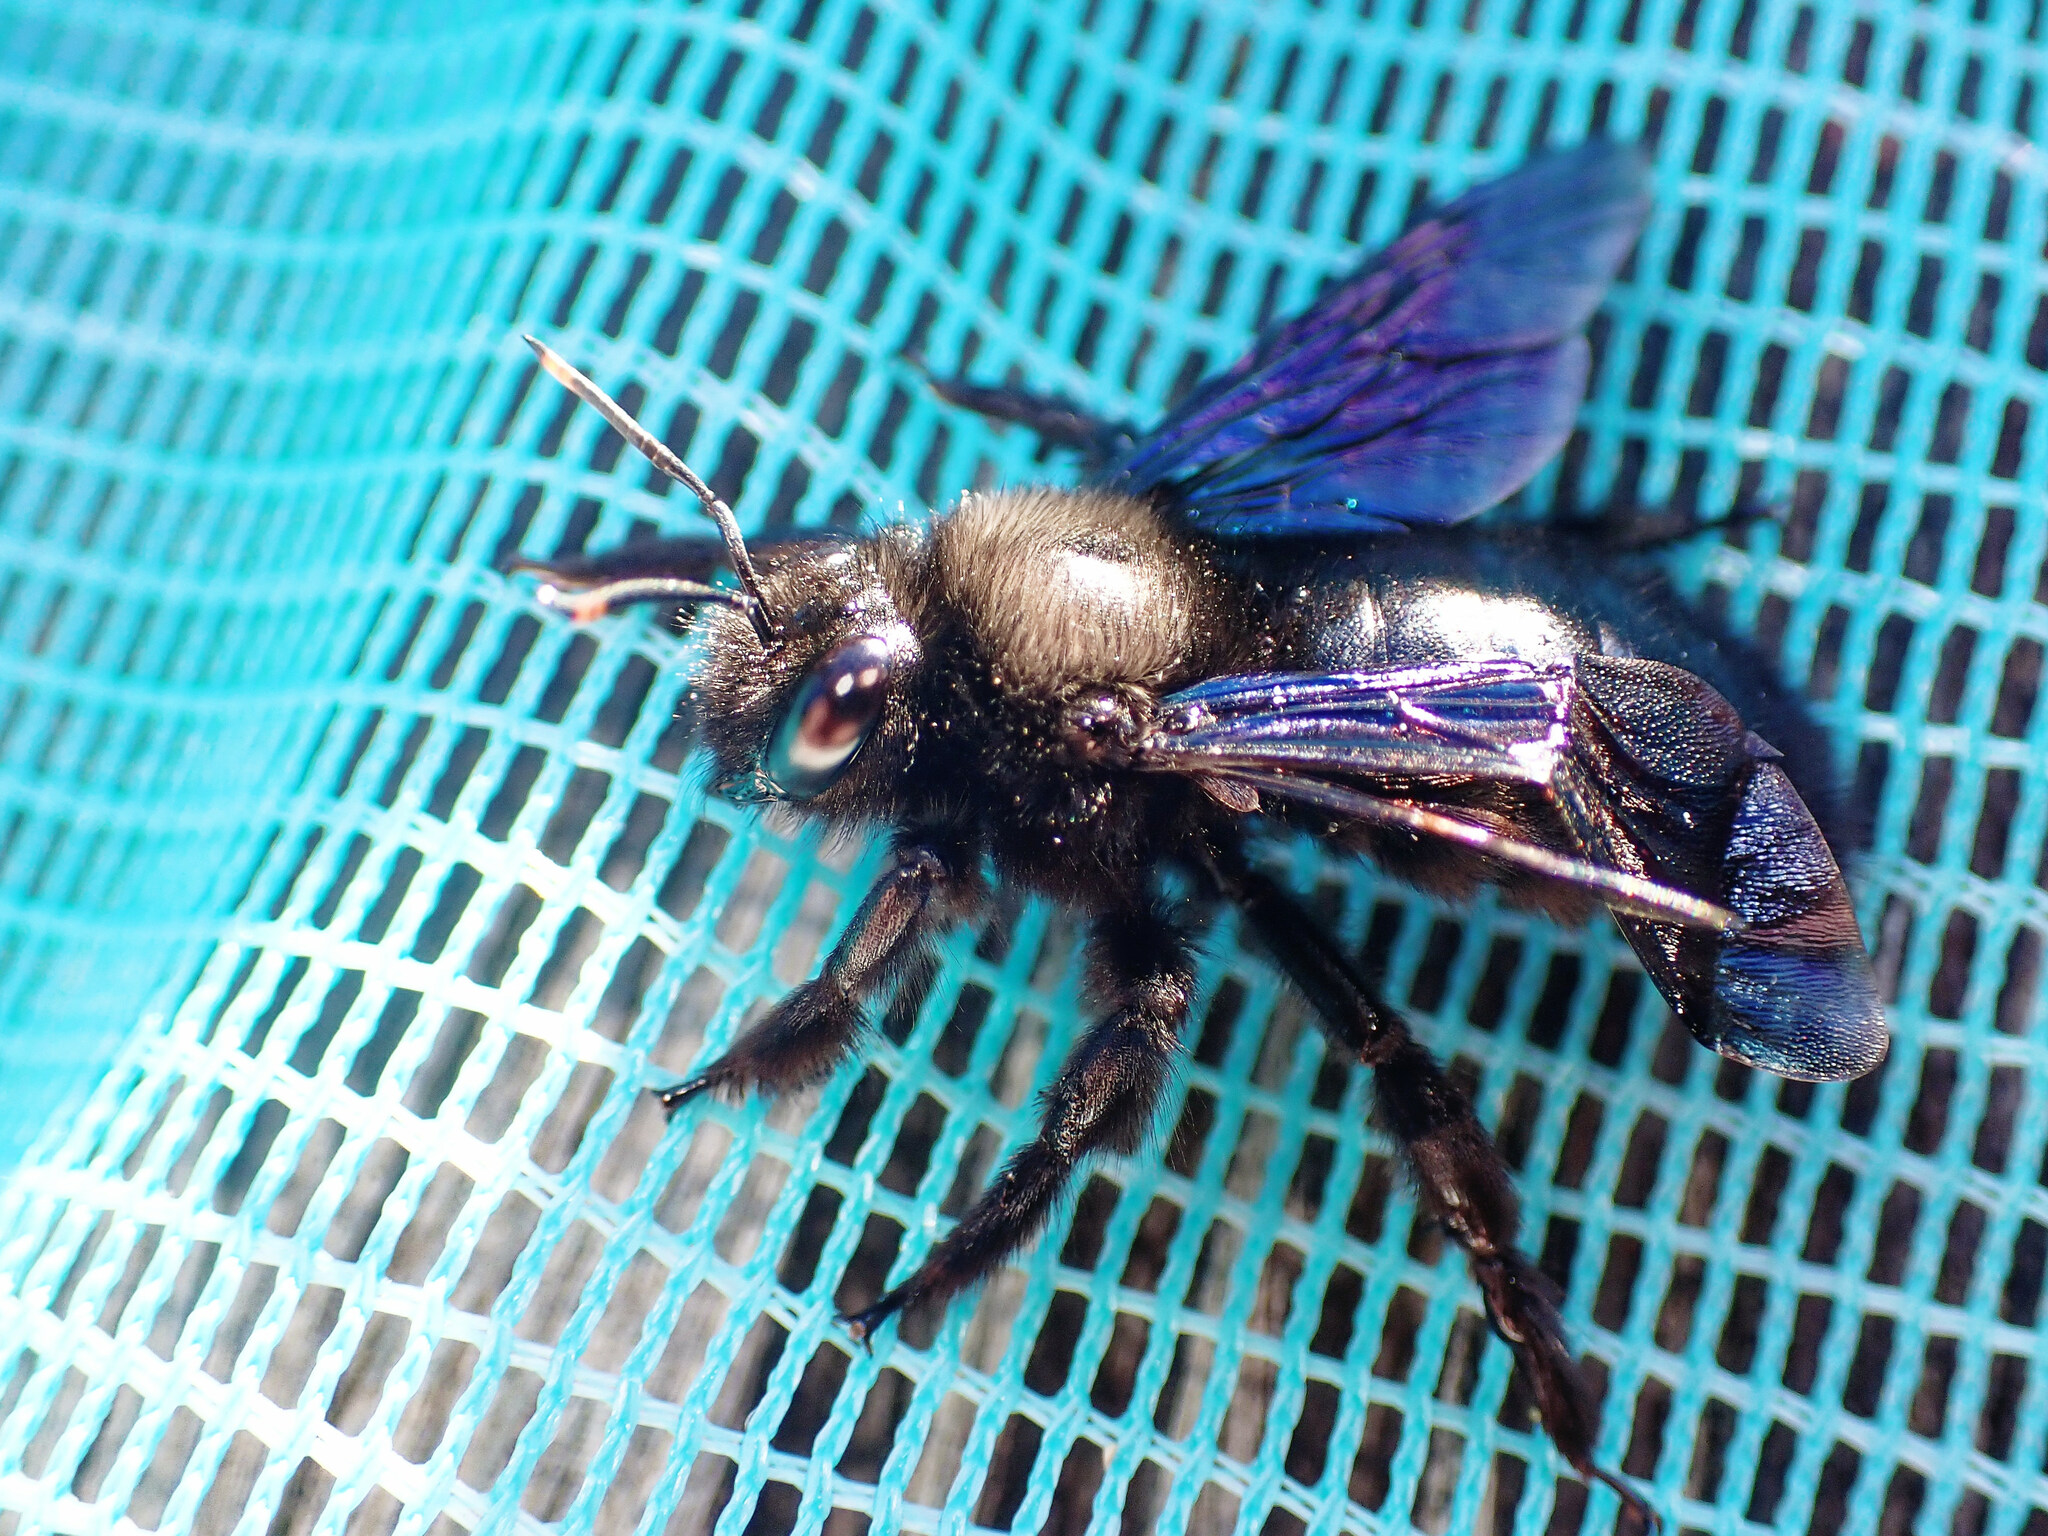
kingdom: Animalia
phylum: Arthropoda
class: Insecta
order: Hymenoptera
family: Apidae
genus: Xylocopa
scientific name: Xylocopa violacea
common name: Violet carpenter bee
